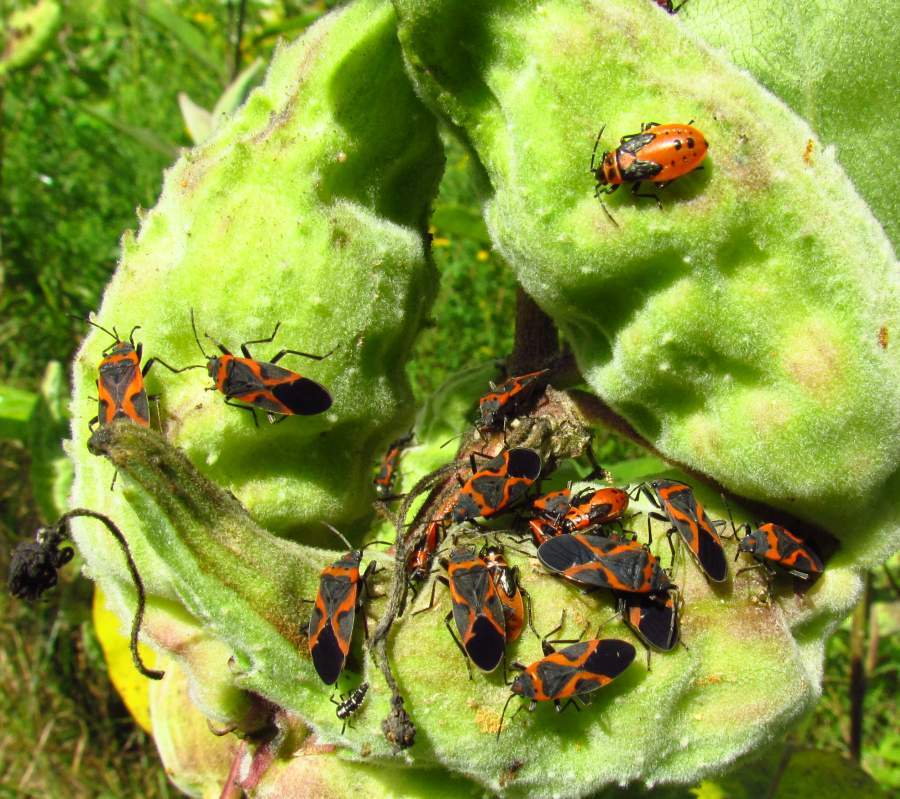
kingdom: Animalia
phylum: Arthropoda
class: Insecta
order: Hemiptera
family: Lygaeidae
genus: Lygaeus
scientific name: Lygaeus kalmii
